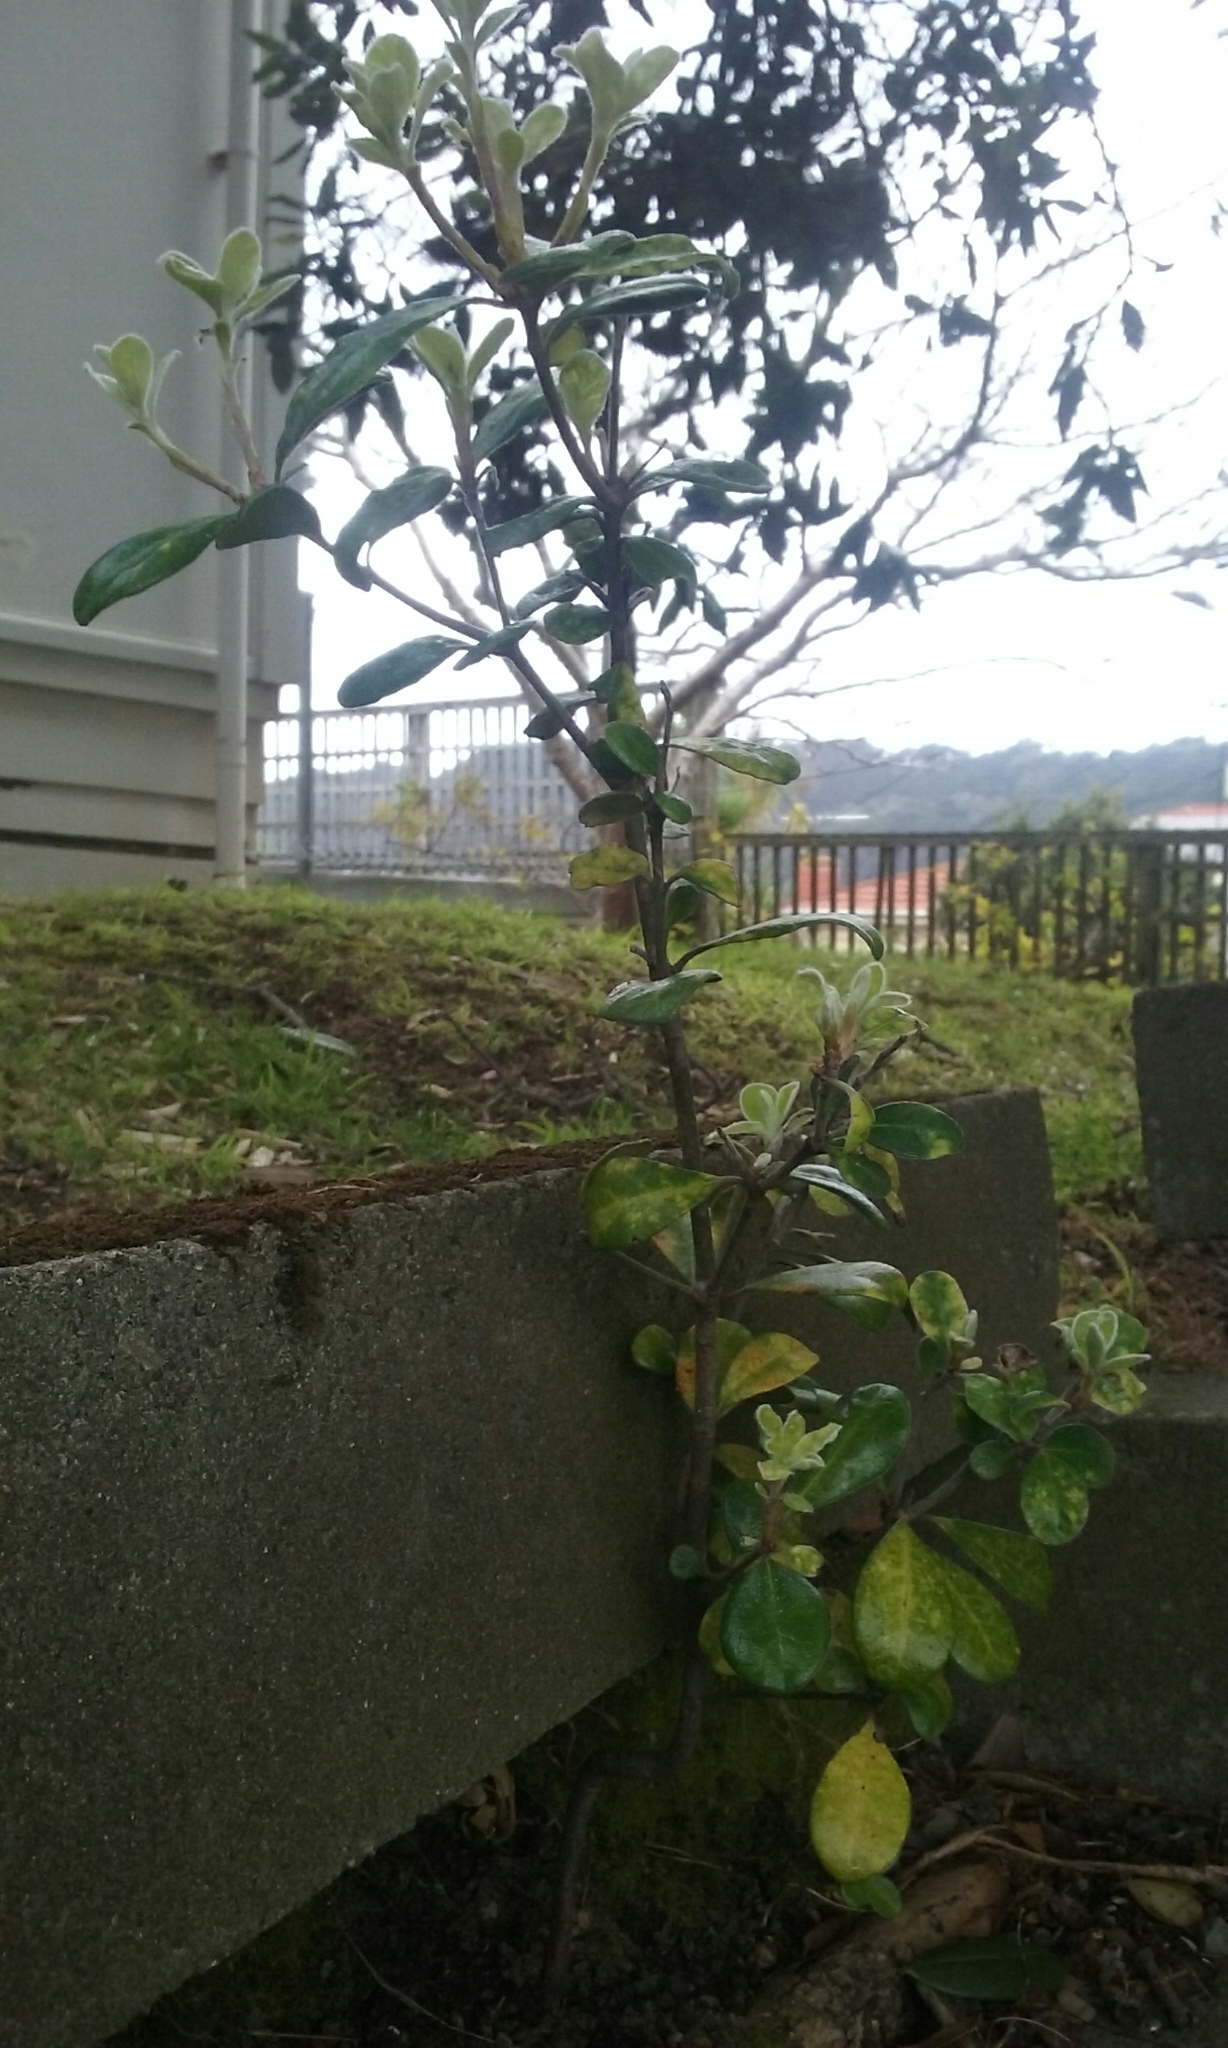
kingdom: Plantae
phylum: Tracheophyta
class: Magnoliopsida
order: Apiales
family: Pittosporaceae
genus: Pittosporum
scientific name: Pittosporum crassifolium
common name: Karo
